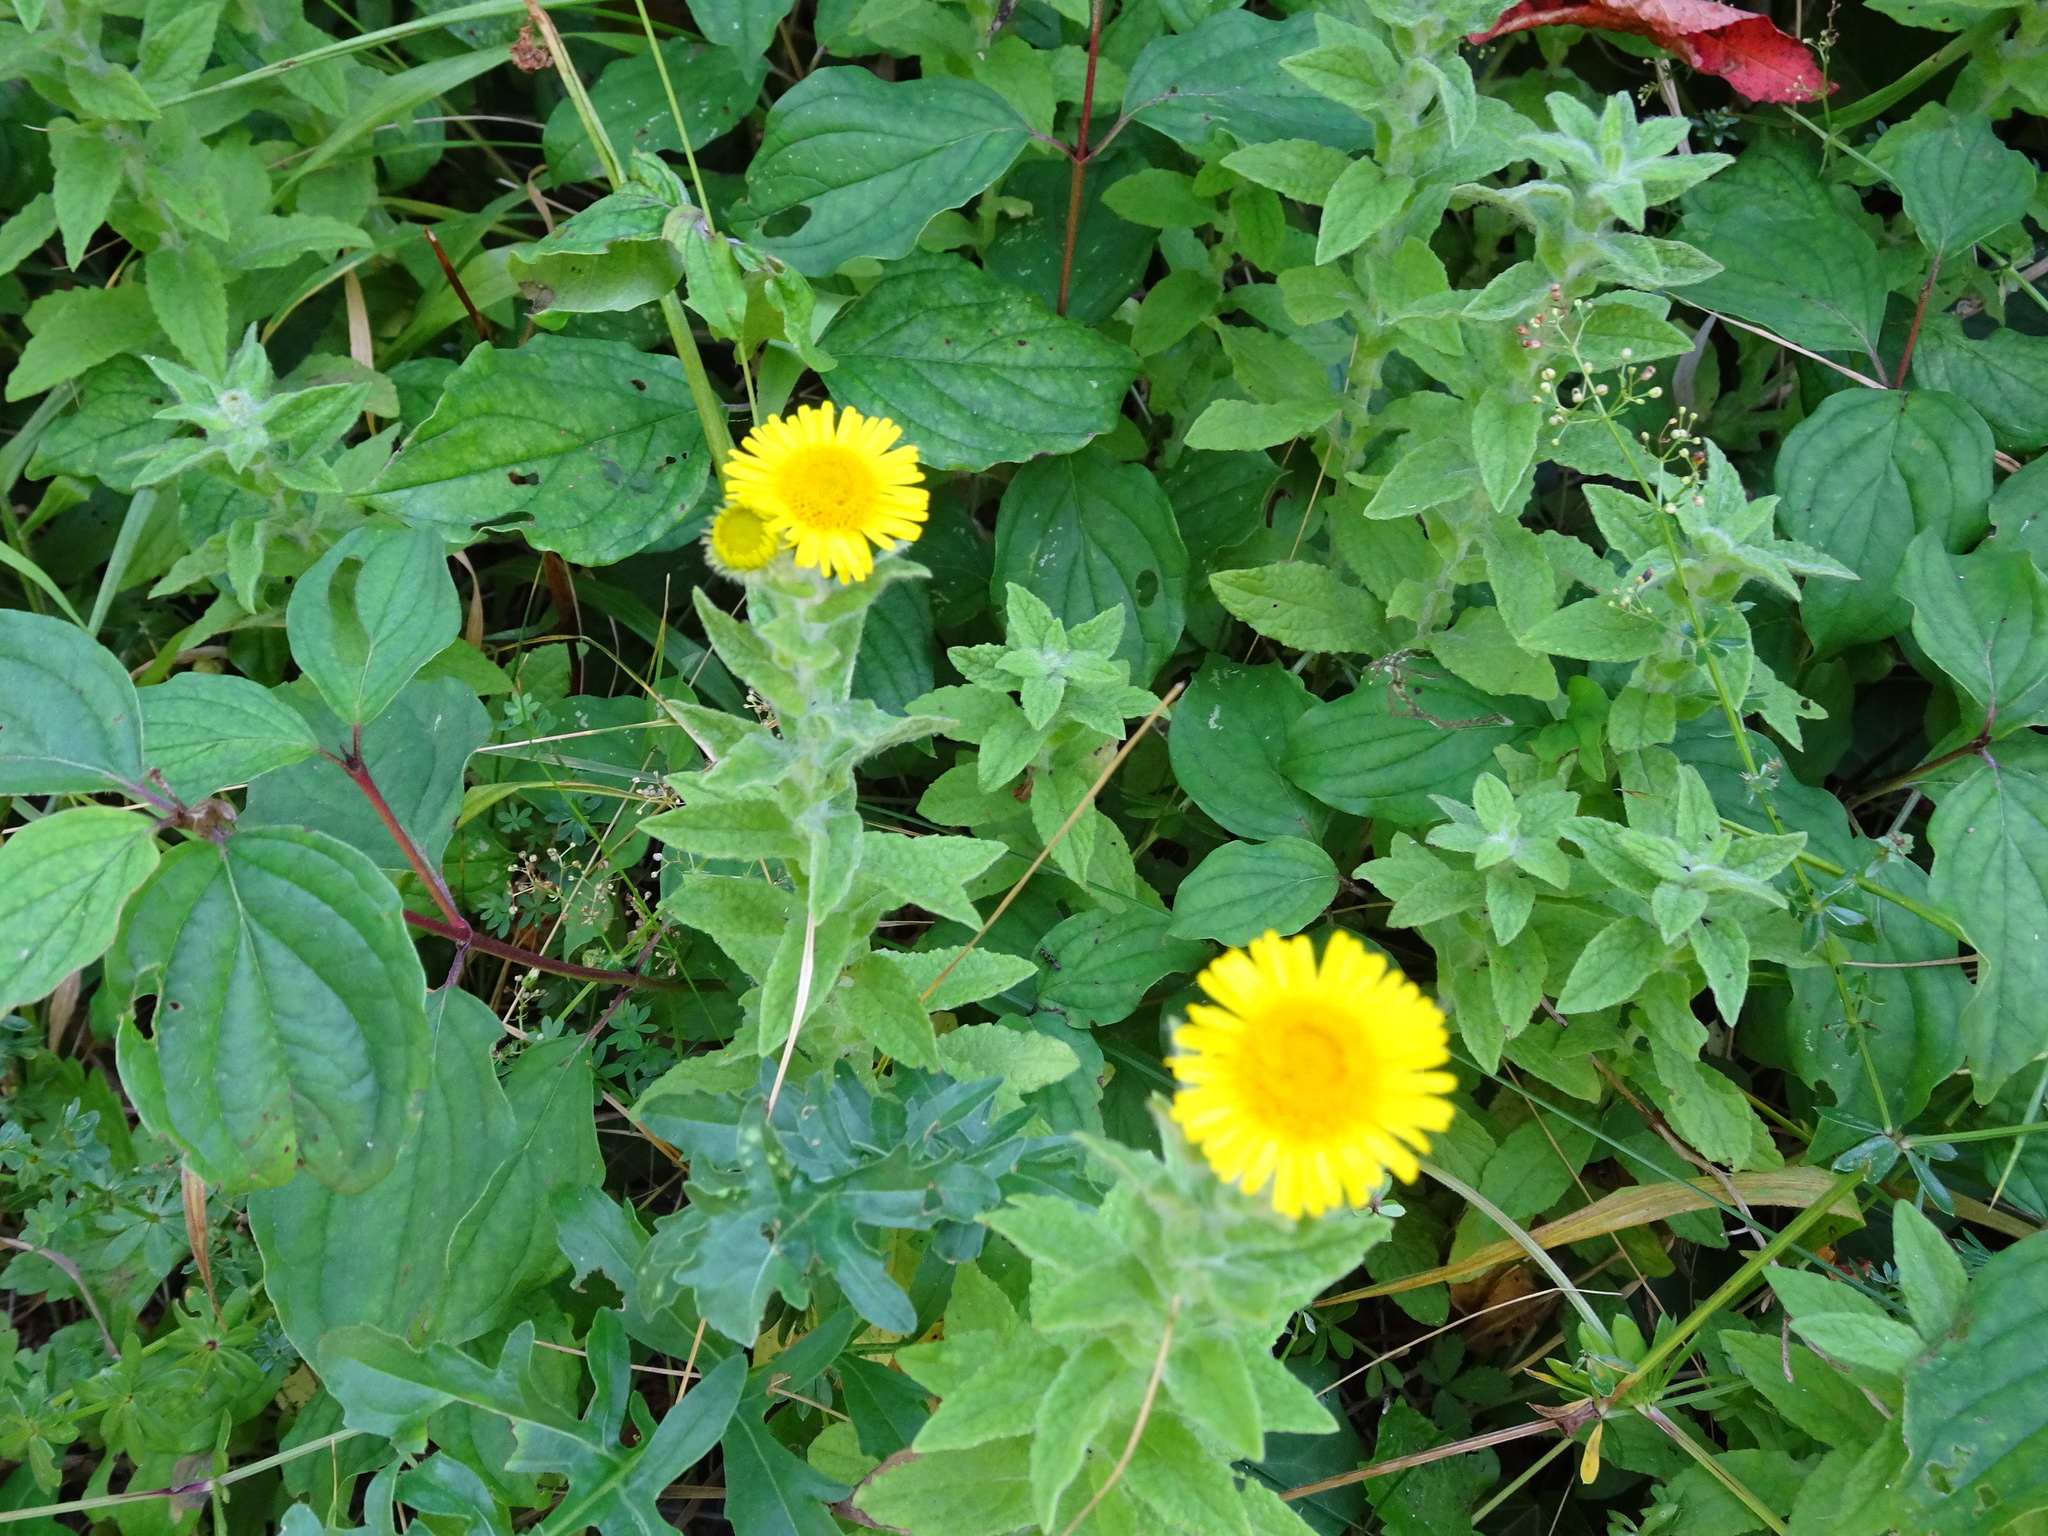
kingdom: Plantae
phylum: Tracheophyta
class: Magnoliopsida
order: Asterales
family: Asteraceae
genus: Pulicaria
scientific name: Pulicaria dysenterica
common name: Common fleabane
